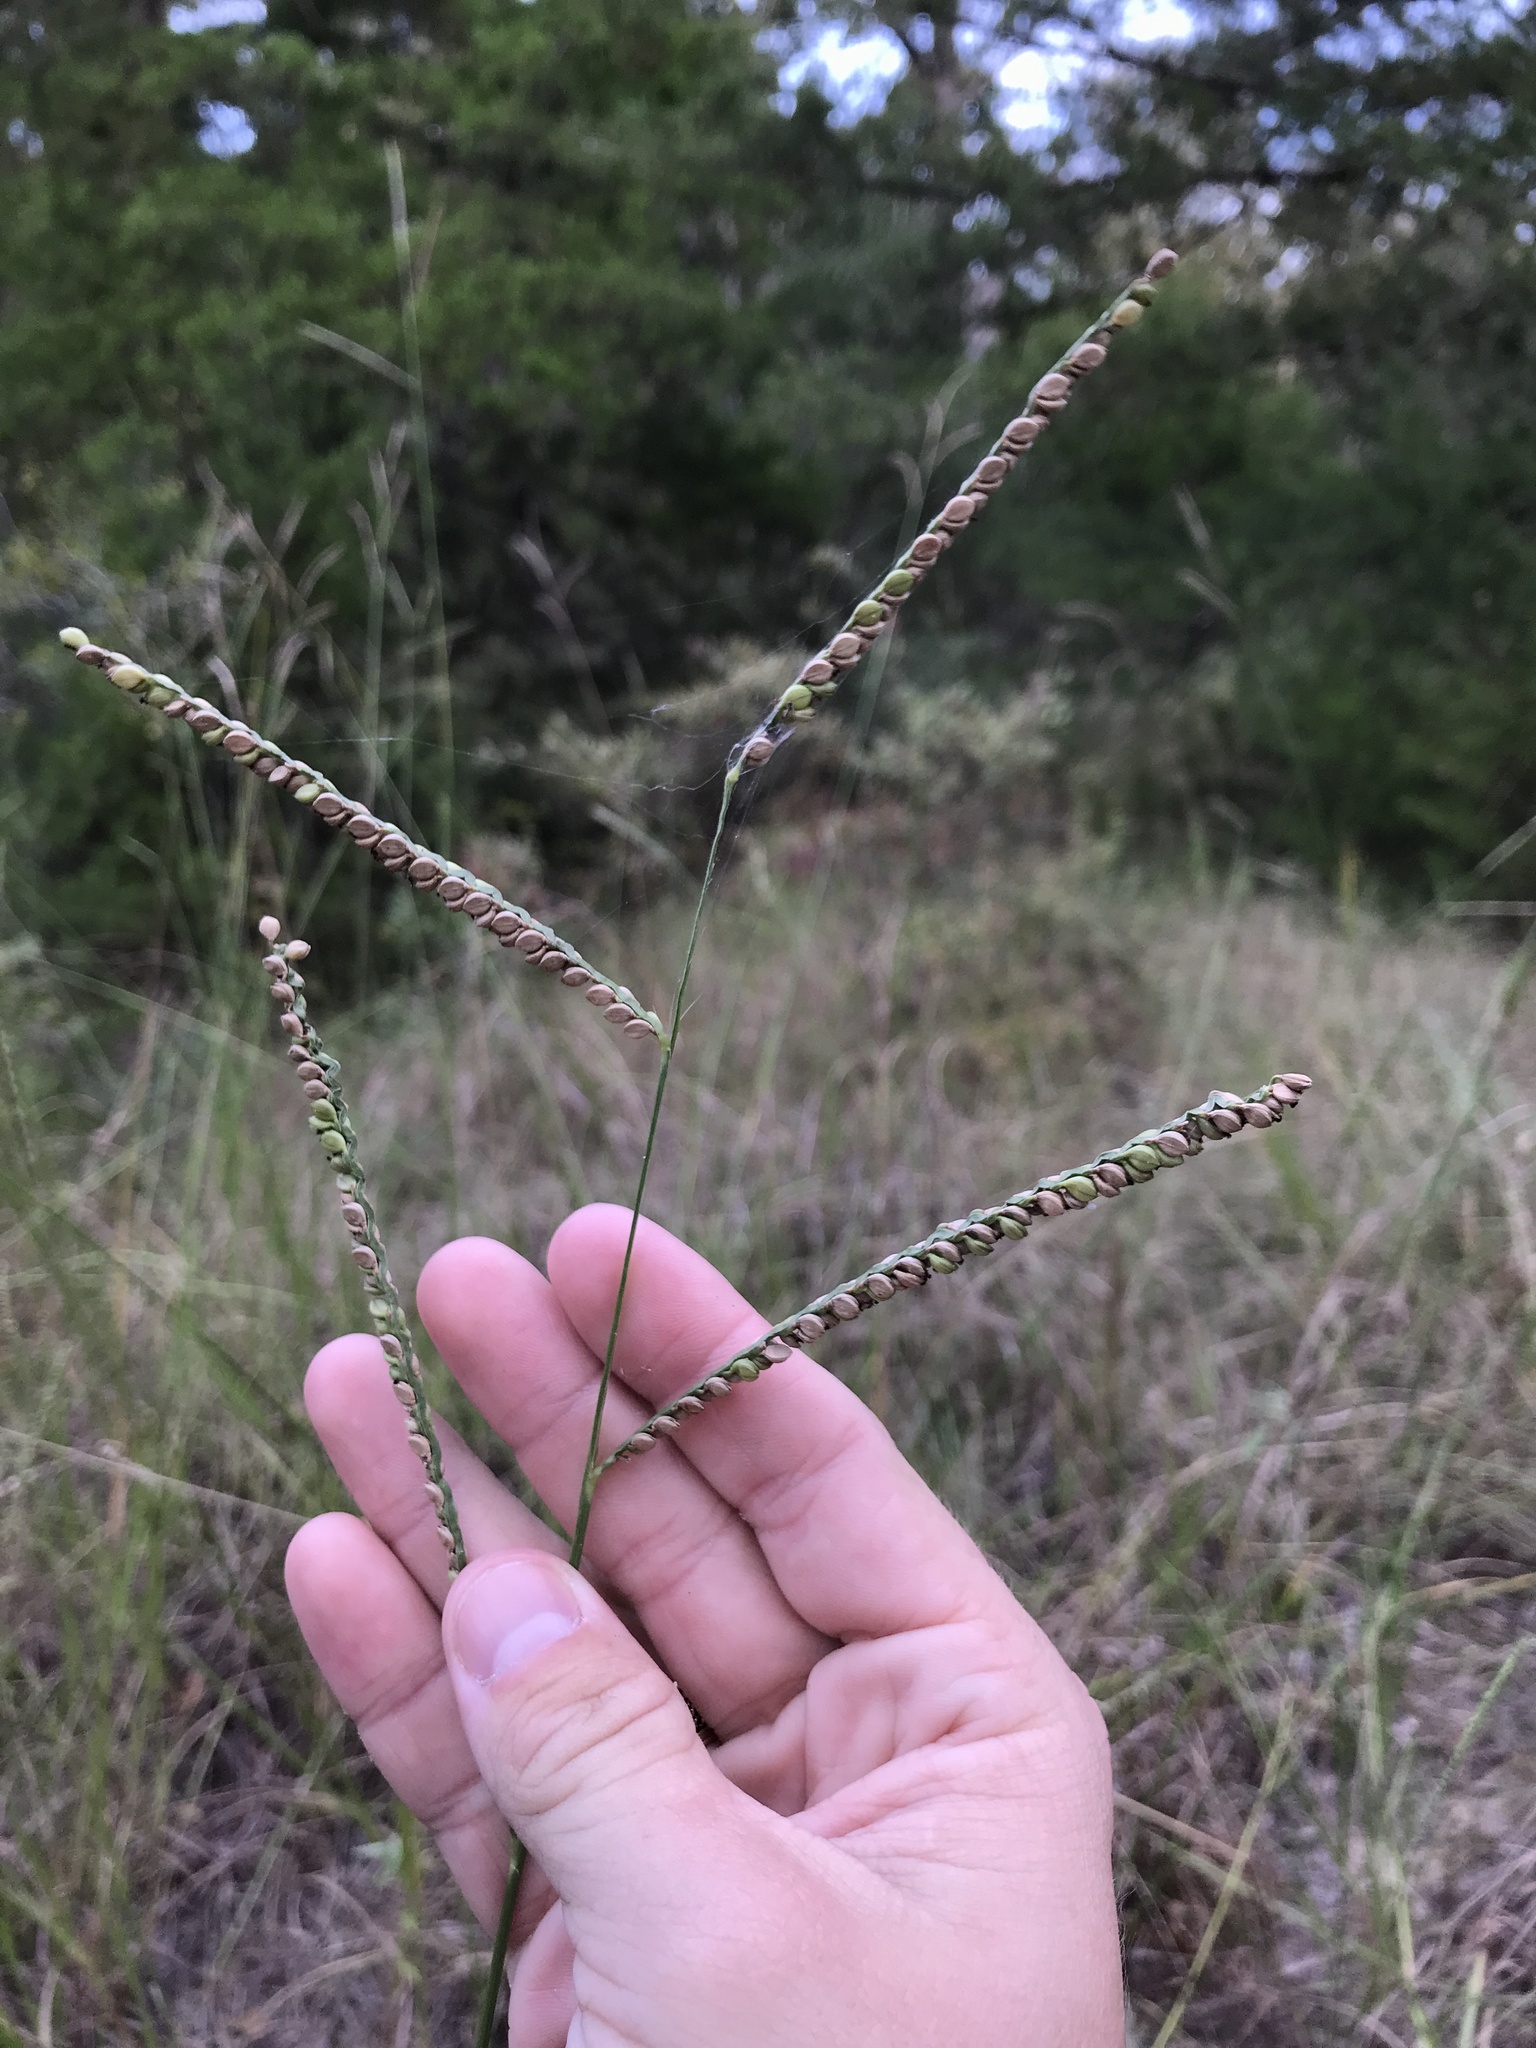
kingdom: Plantae
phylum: Tracheophyta
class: Liliopsida
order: Poales
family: Poaceae
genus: Paspalum
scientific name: Paspalum floridanum
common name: Florida paspalum
